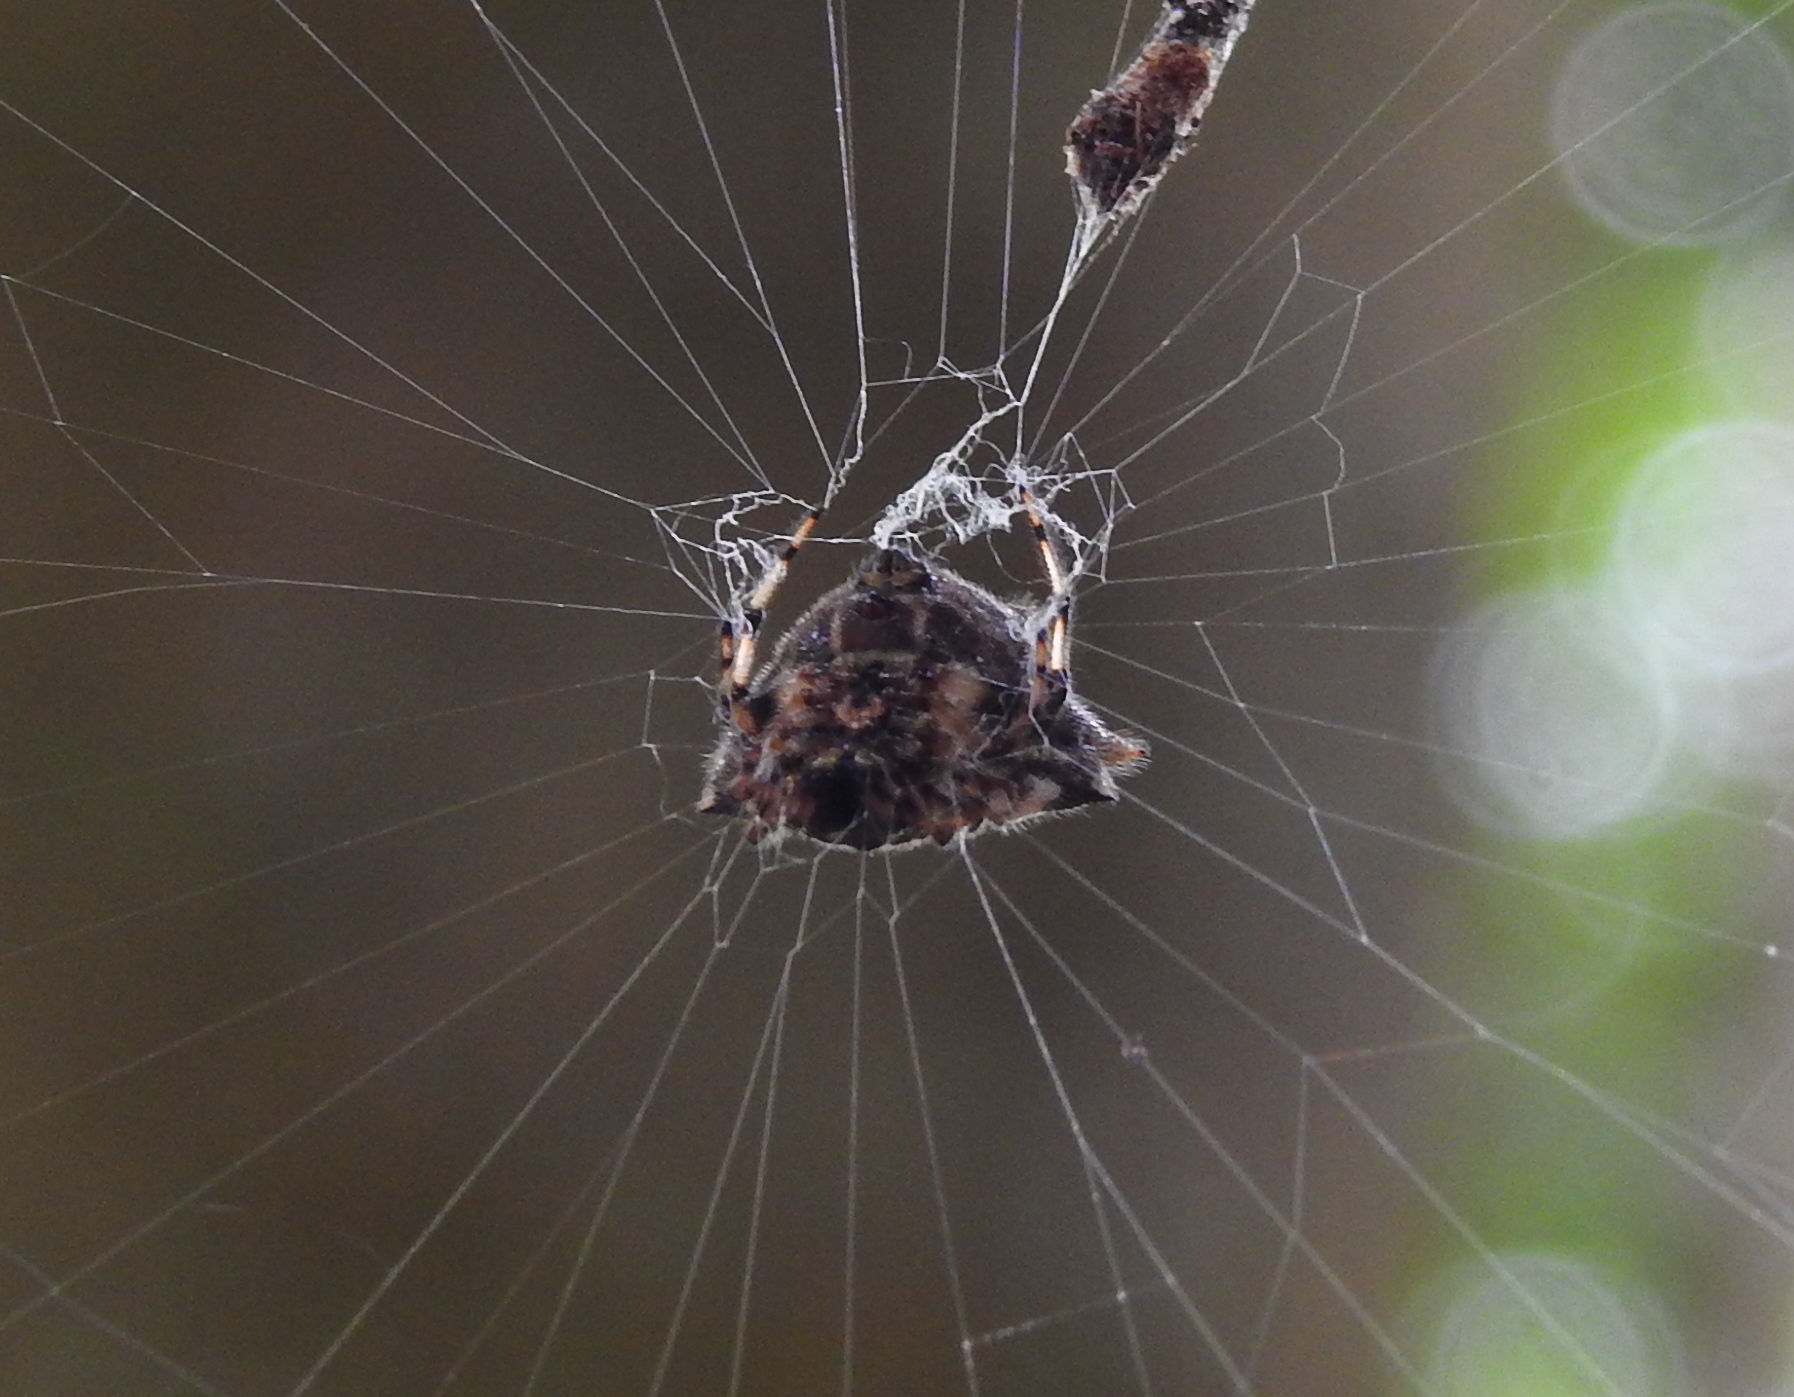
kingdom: Animalia
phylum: Arthropoda
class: Arachnida
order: Araneae
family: Araneidae
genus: Gasteracantha
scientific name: Gasteracantha kuhli
